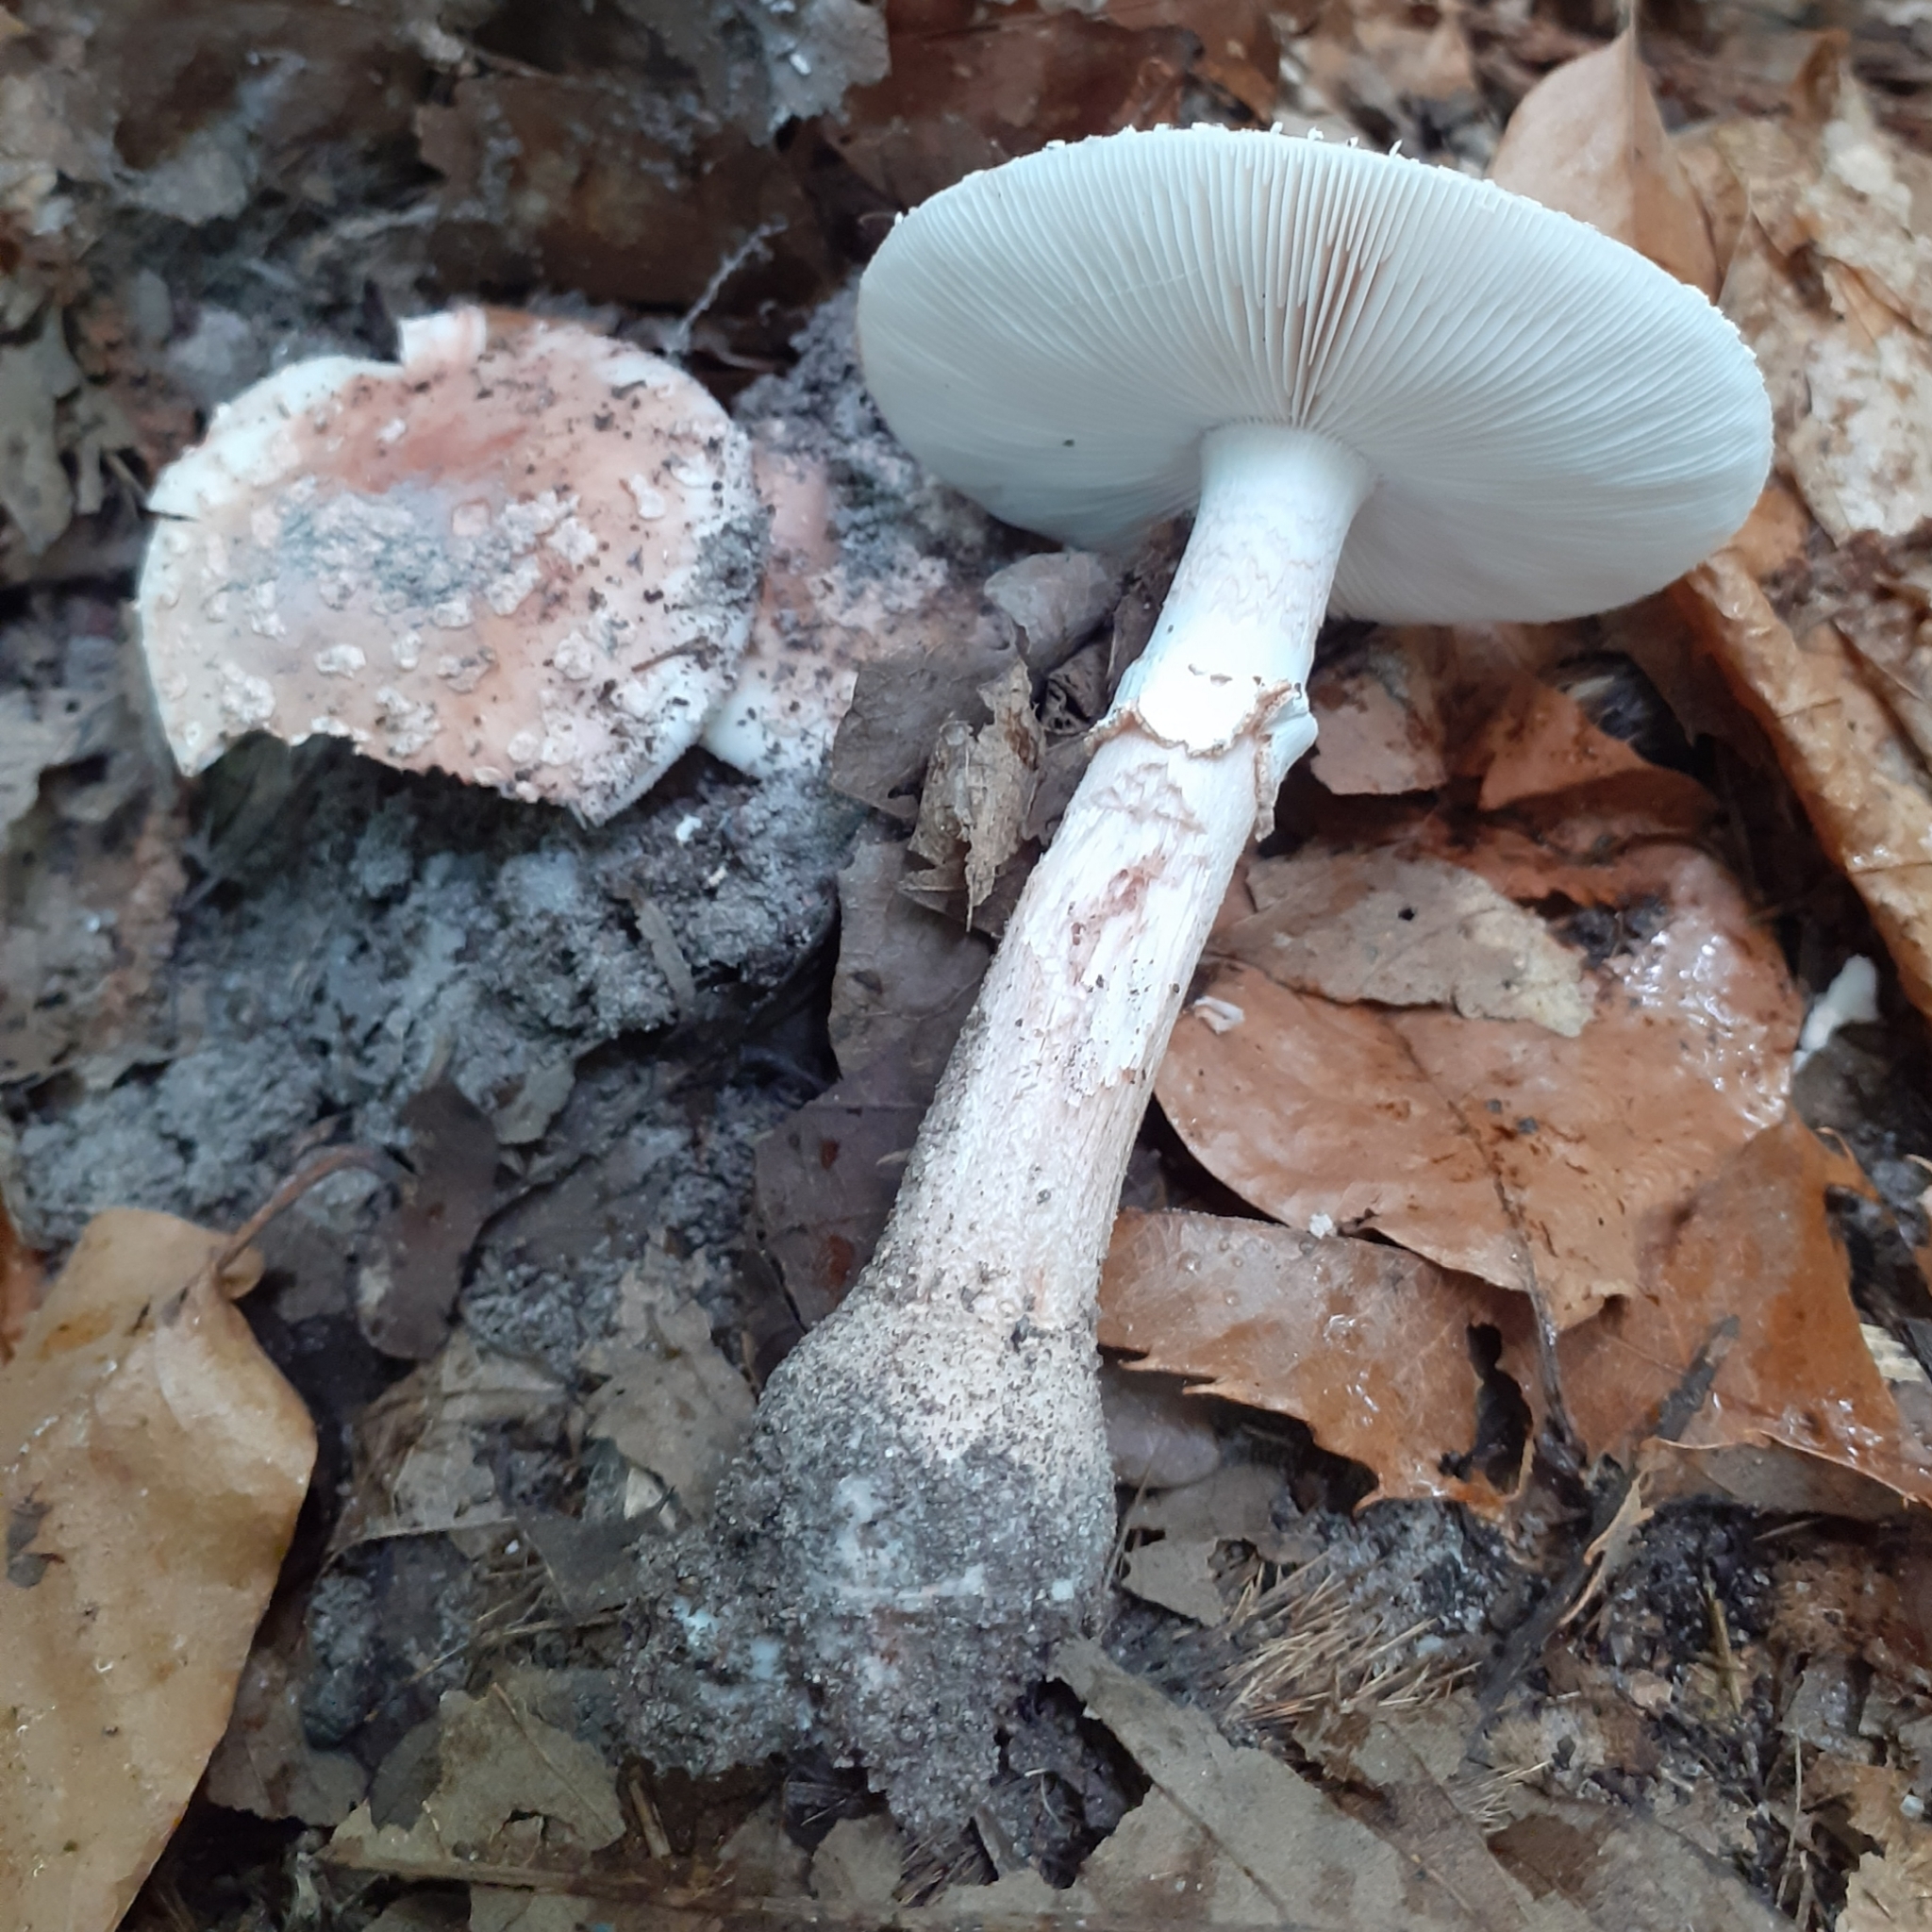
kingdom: Fungi
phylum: Basidiomycota
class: Agaricomycetes
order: Agaricales
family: Amanitaceae
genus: Amanita
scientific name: Amanita rubescens
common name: Blusher
